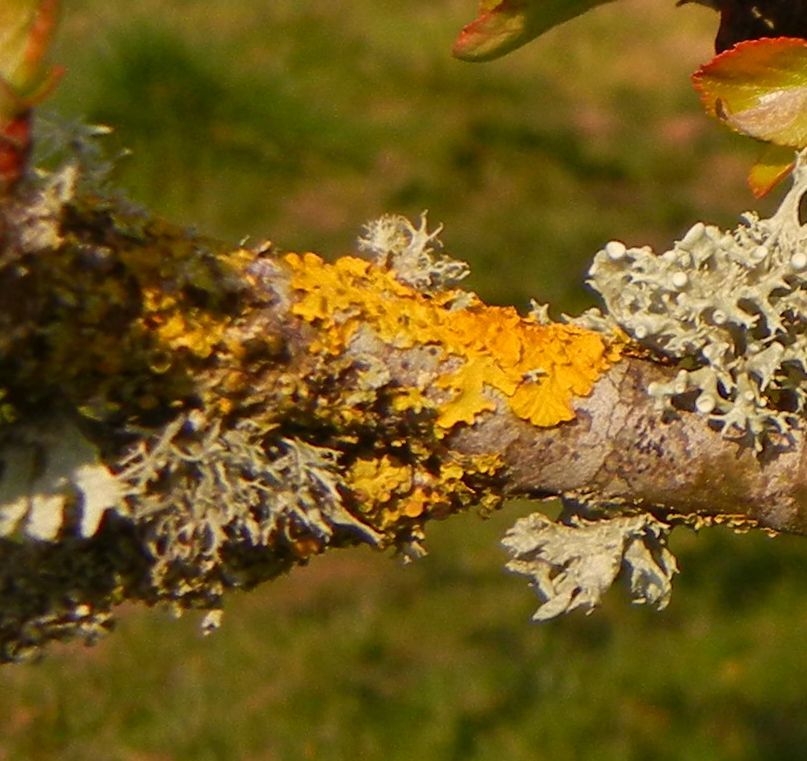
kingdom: Fungi
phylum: Ascomycota
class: Lecanoromycetes
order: Teloschistales
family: Teloschistaceae
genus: Xanthoria
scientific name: Xanthoria parietina
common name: Common orange lichen
